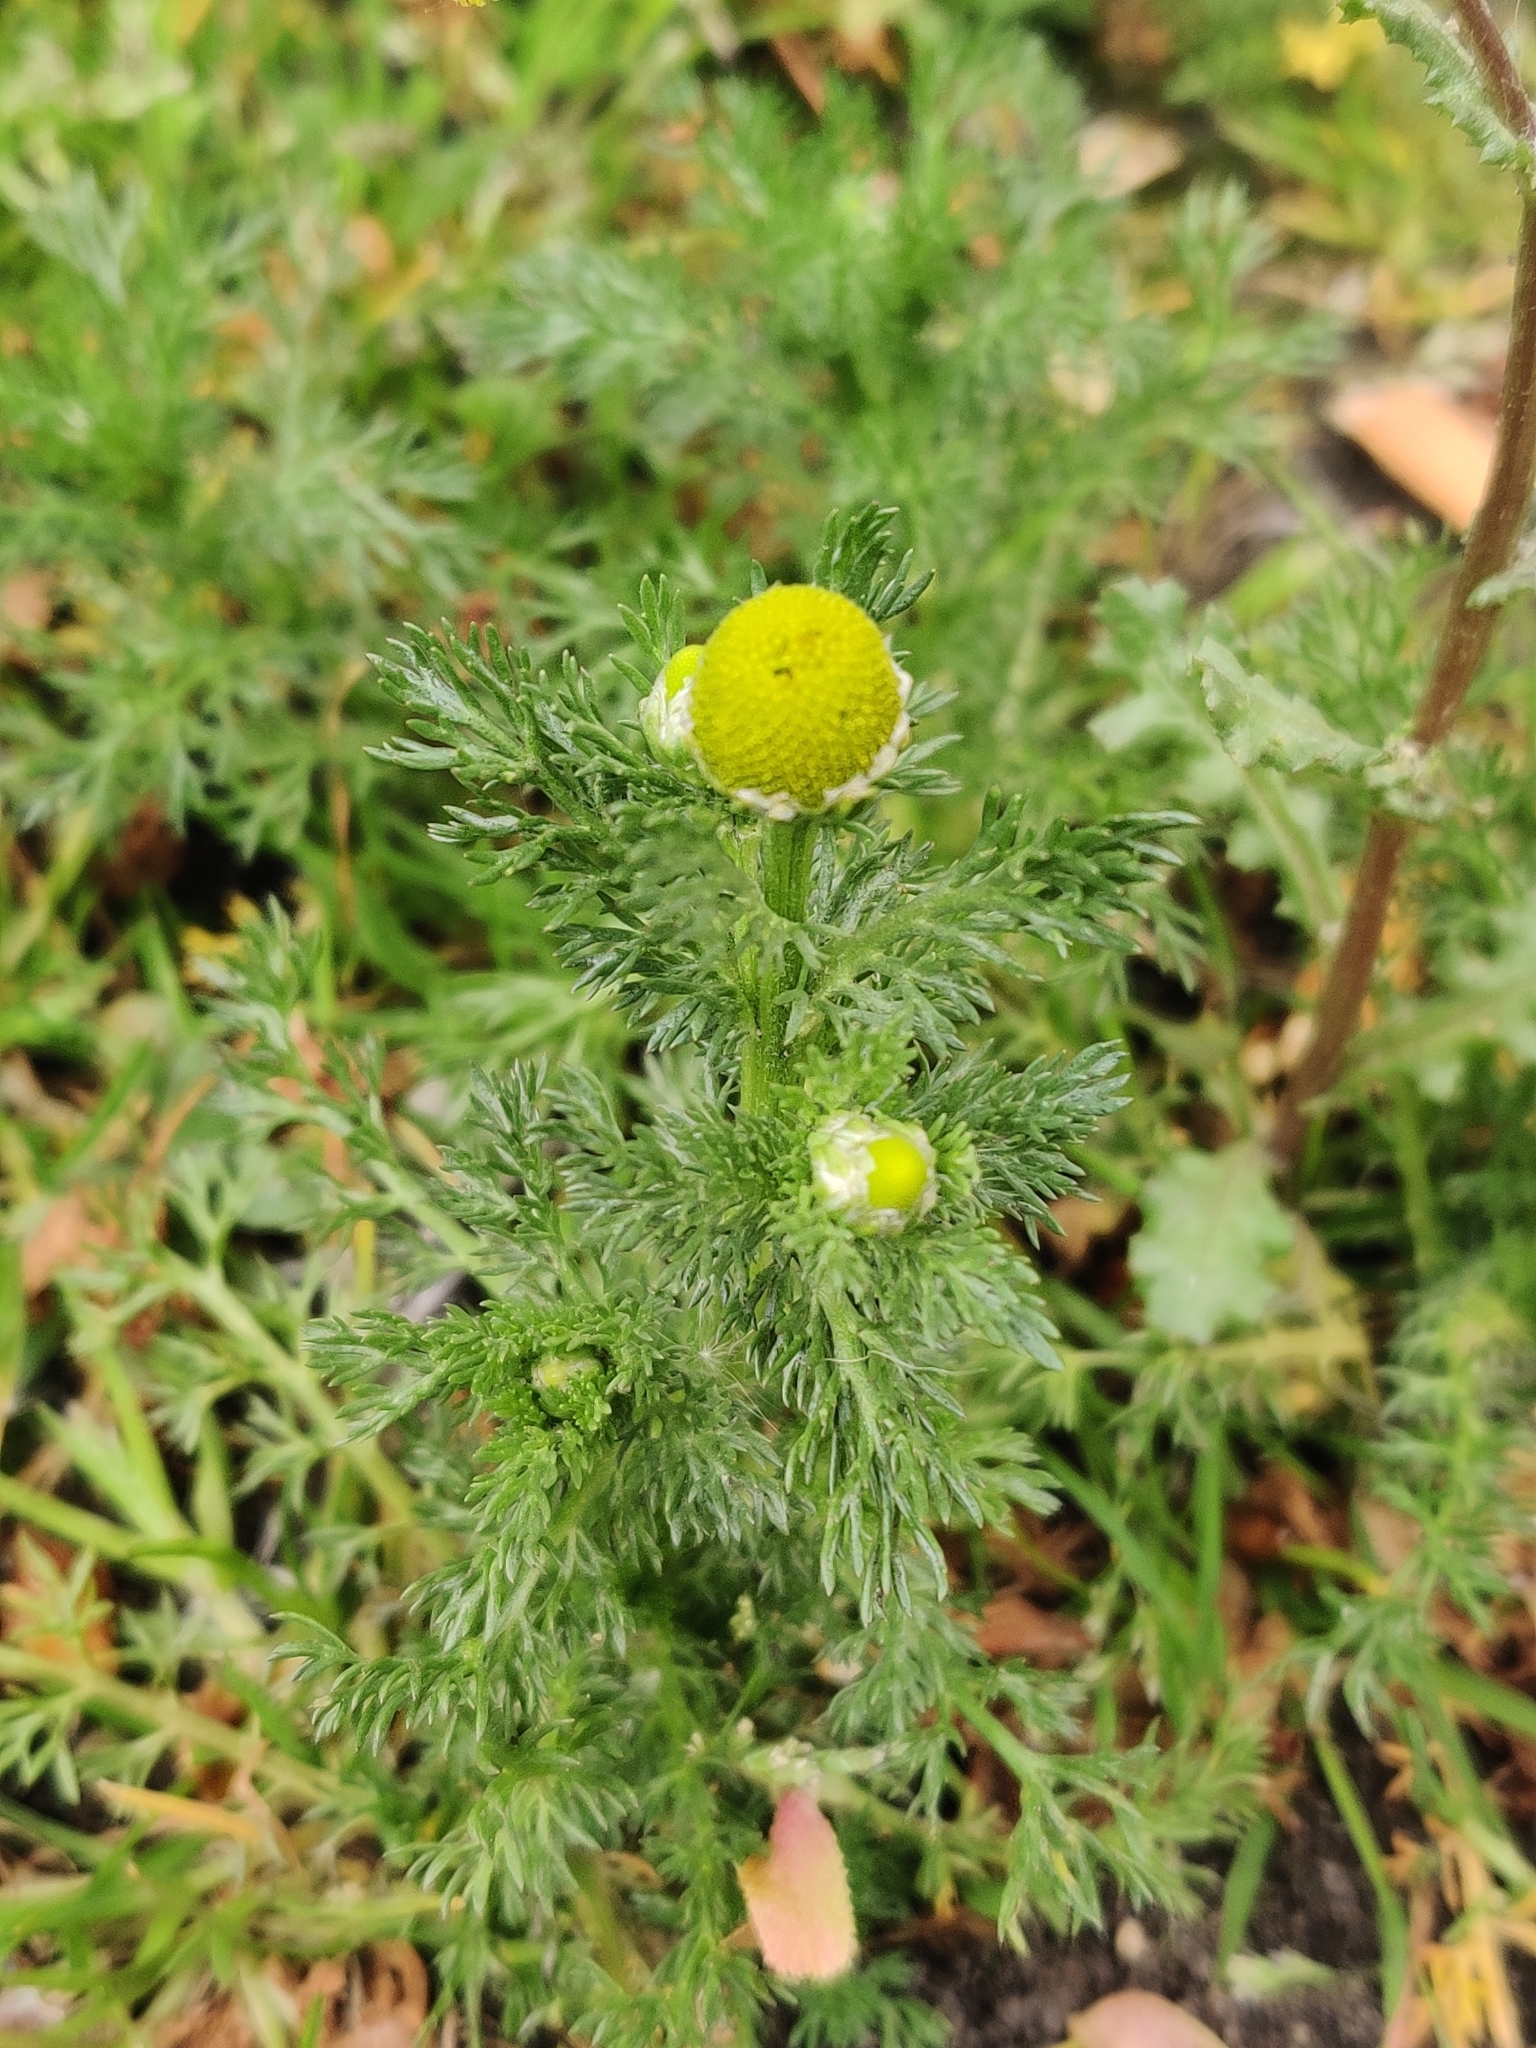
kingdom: Plantae
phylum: Tracheophyta
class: Magnoliopsida
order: Asterales
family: Asteraceae
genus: Matricaria
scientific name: Matricaria discoidea
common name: Disc mayweed
